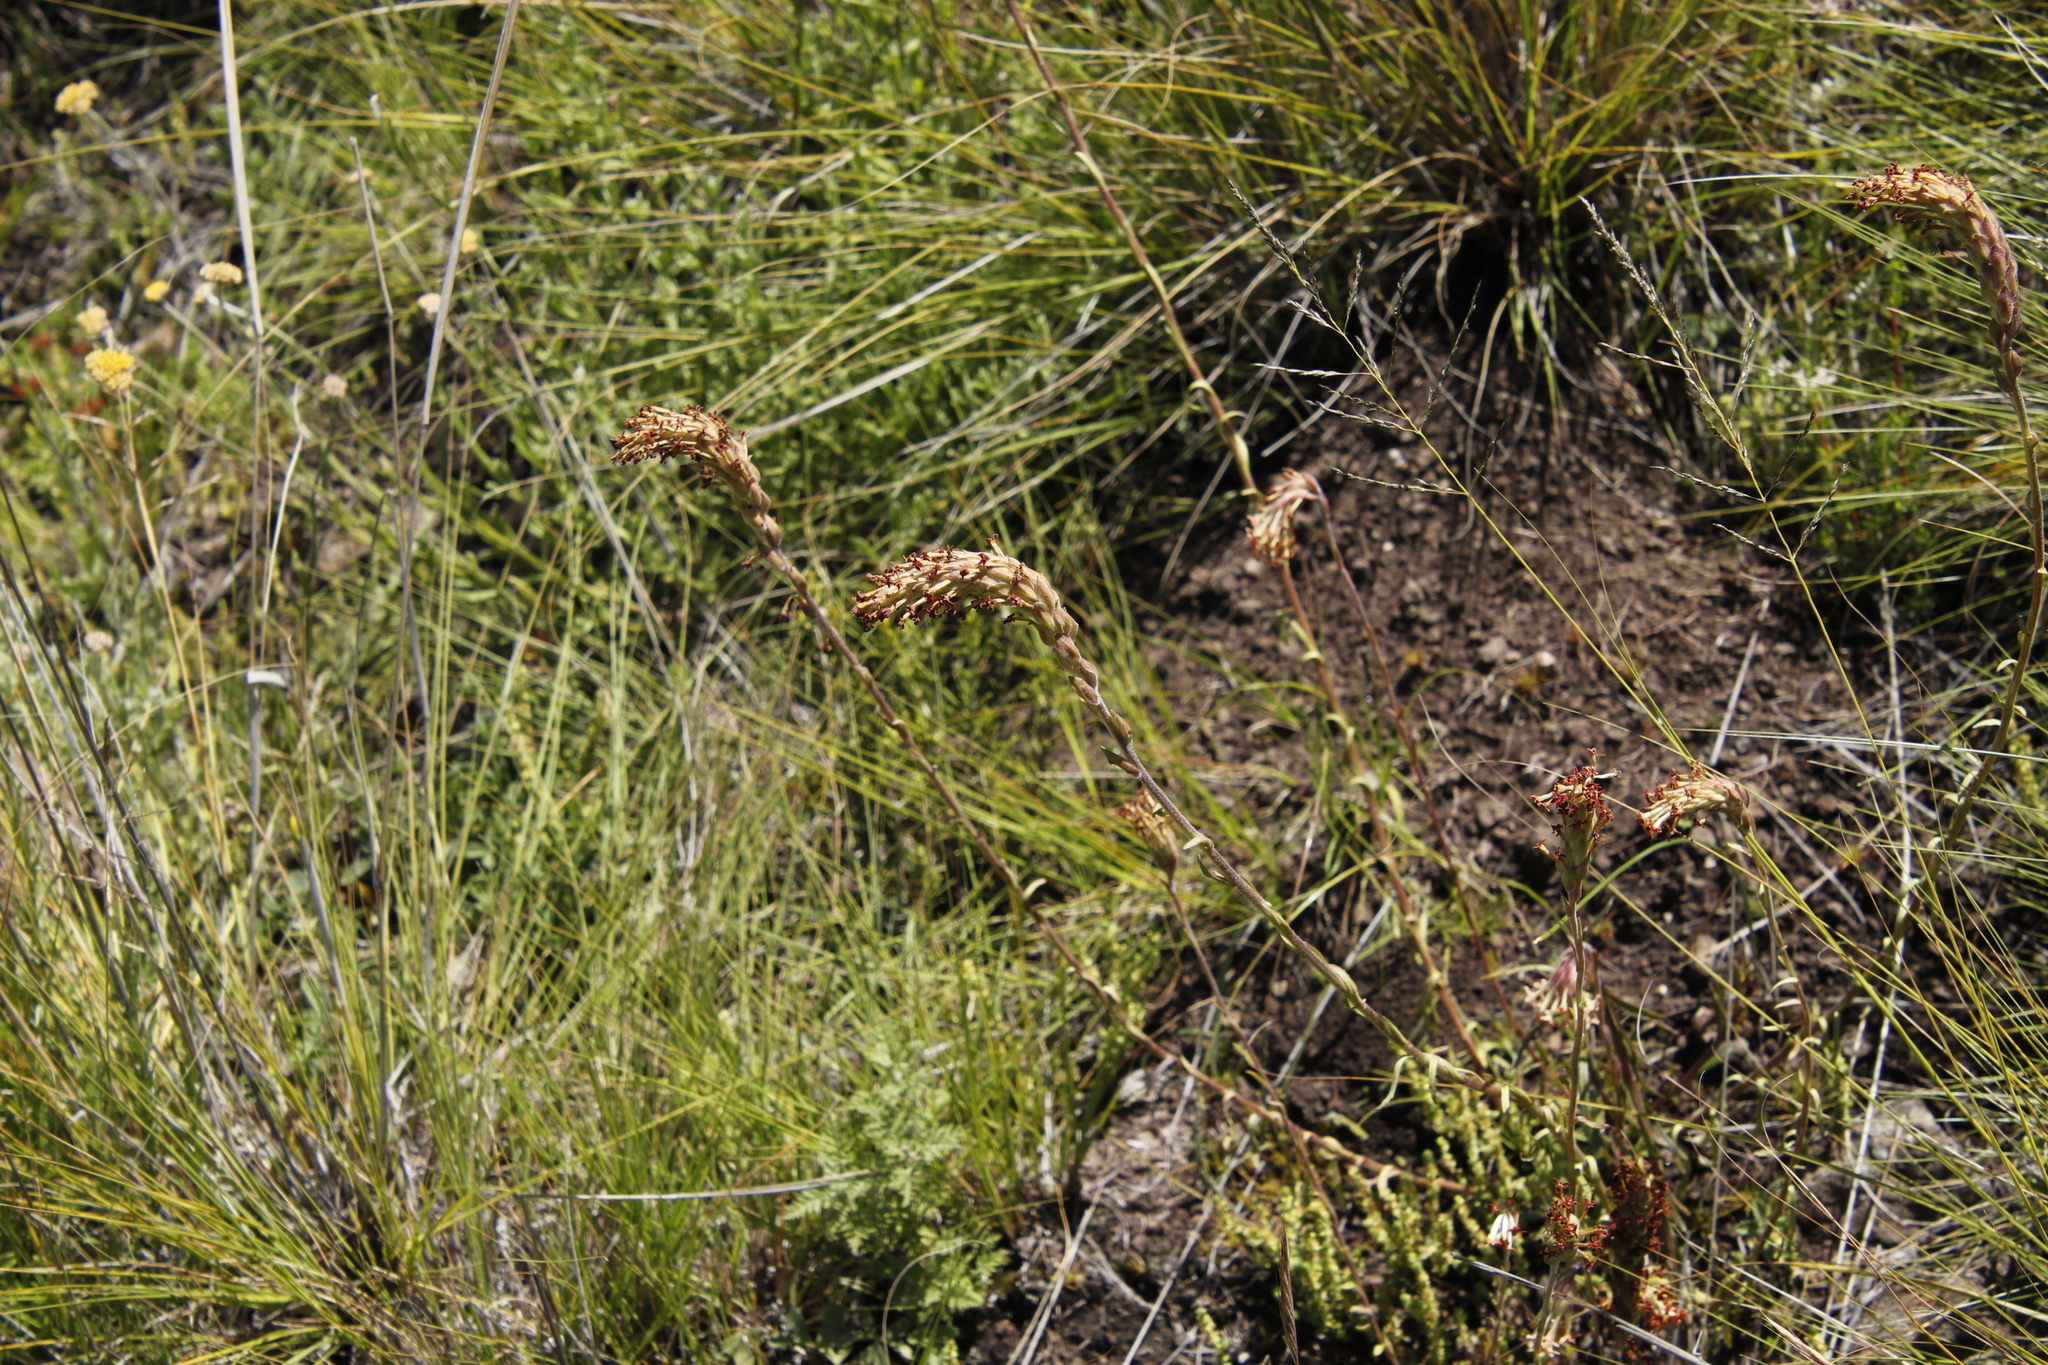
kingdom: Plantae
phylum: Tracheophyta
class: Magnoliopsida
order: Lamiales
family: Scrophulariaceae
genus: Glumicalyx
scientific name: Glumicalyx nutans
